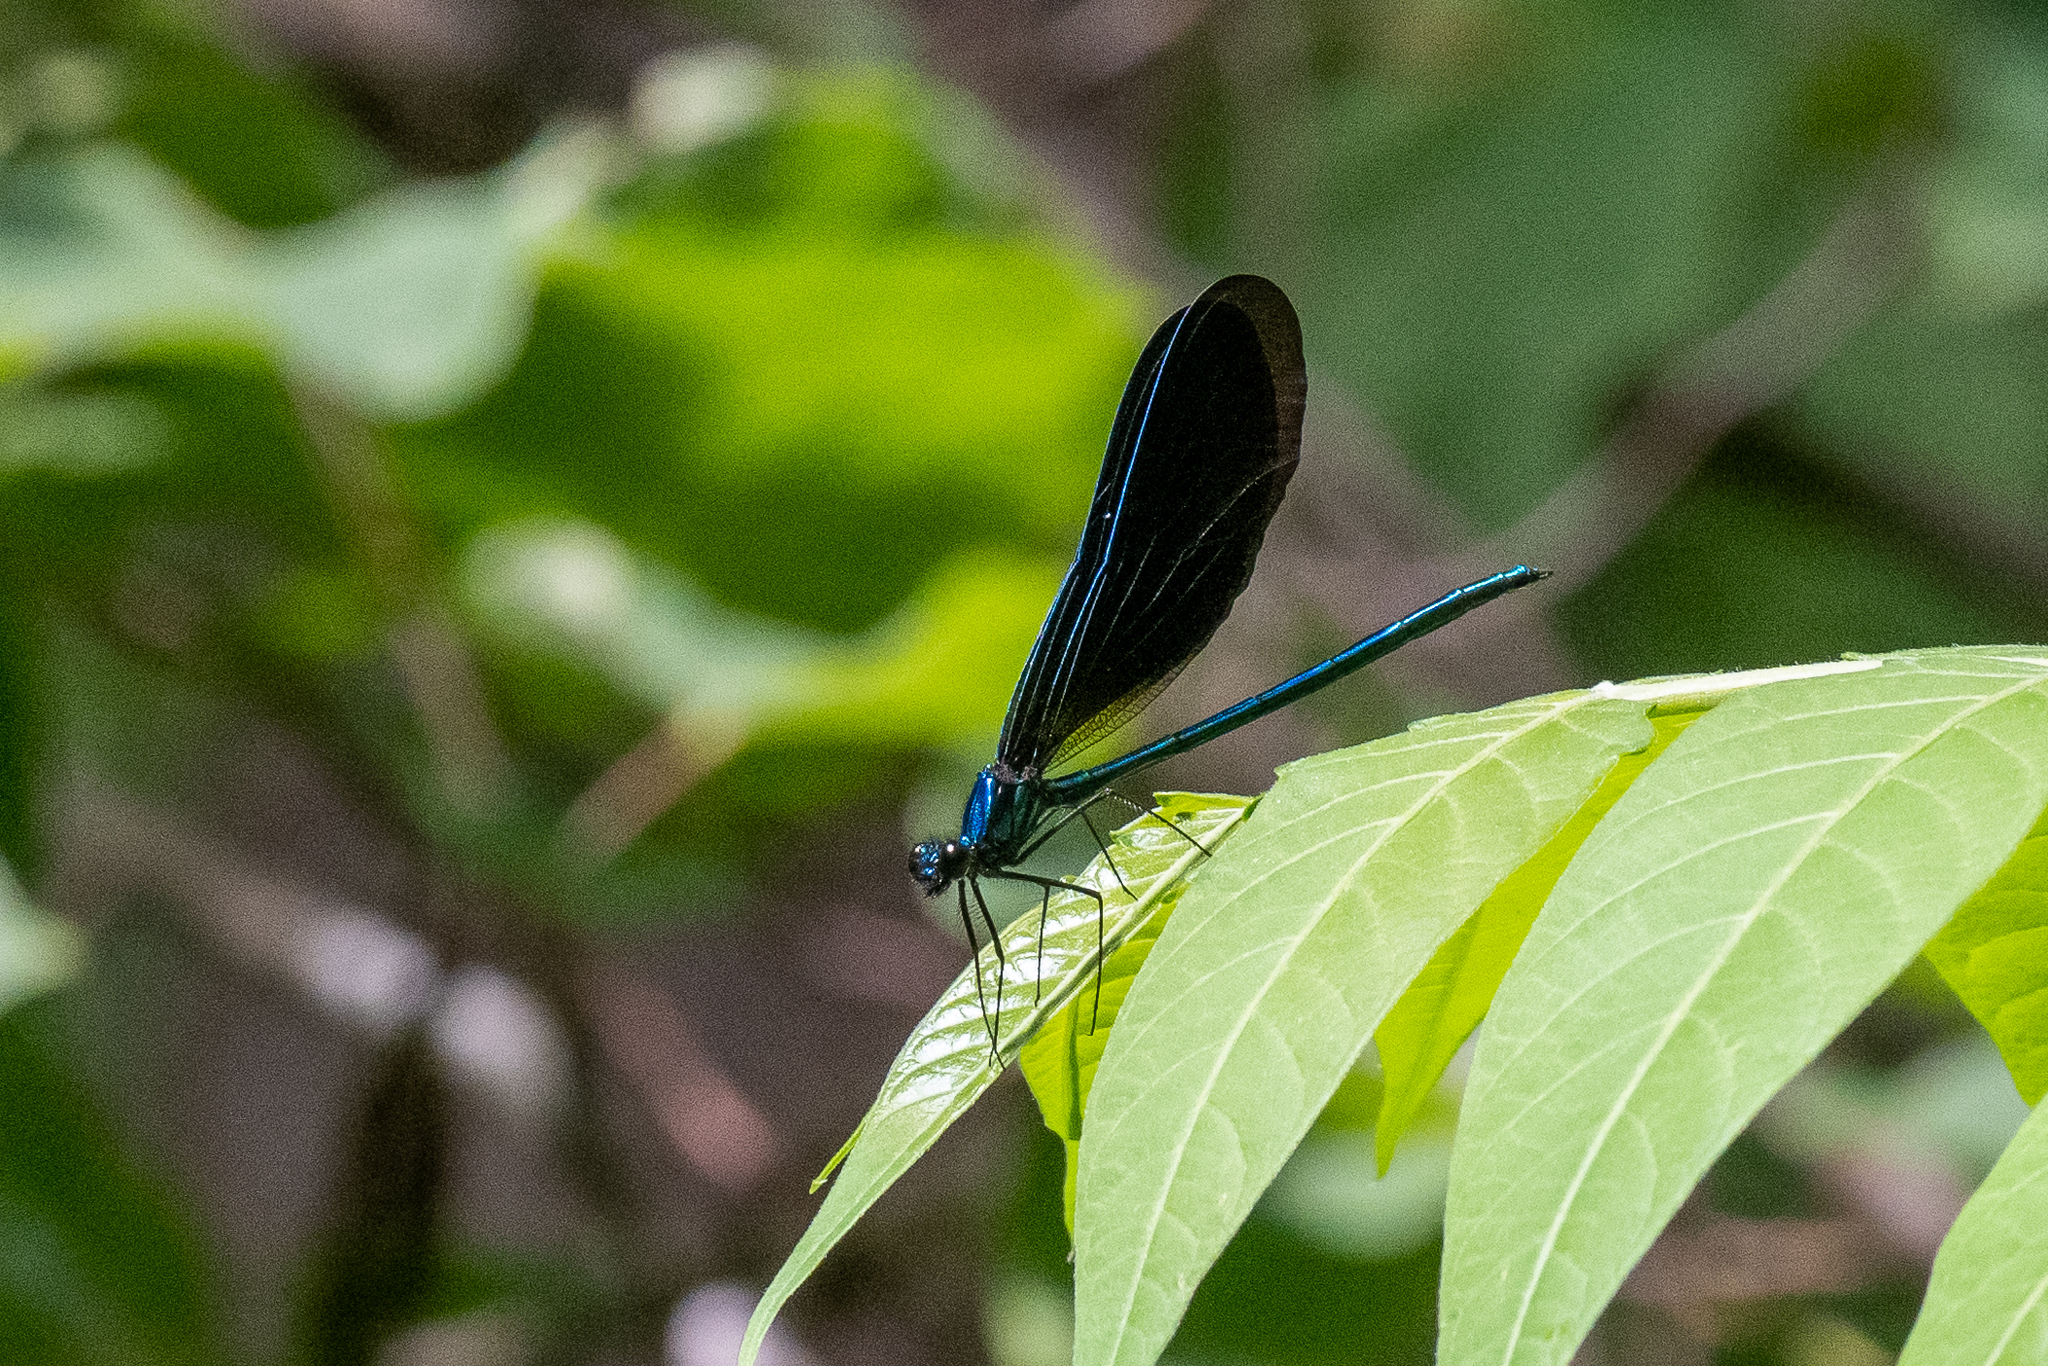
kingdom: Animalia
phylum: Arthropoda
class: Insecta
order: Odonata
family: Calopterygidae
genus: Calopteryx
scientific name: Calopteryx maculata
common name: Ebony jewelwing
